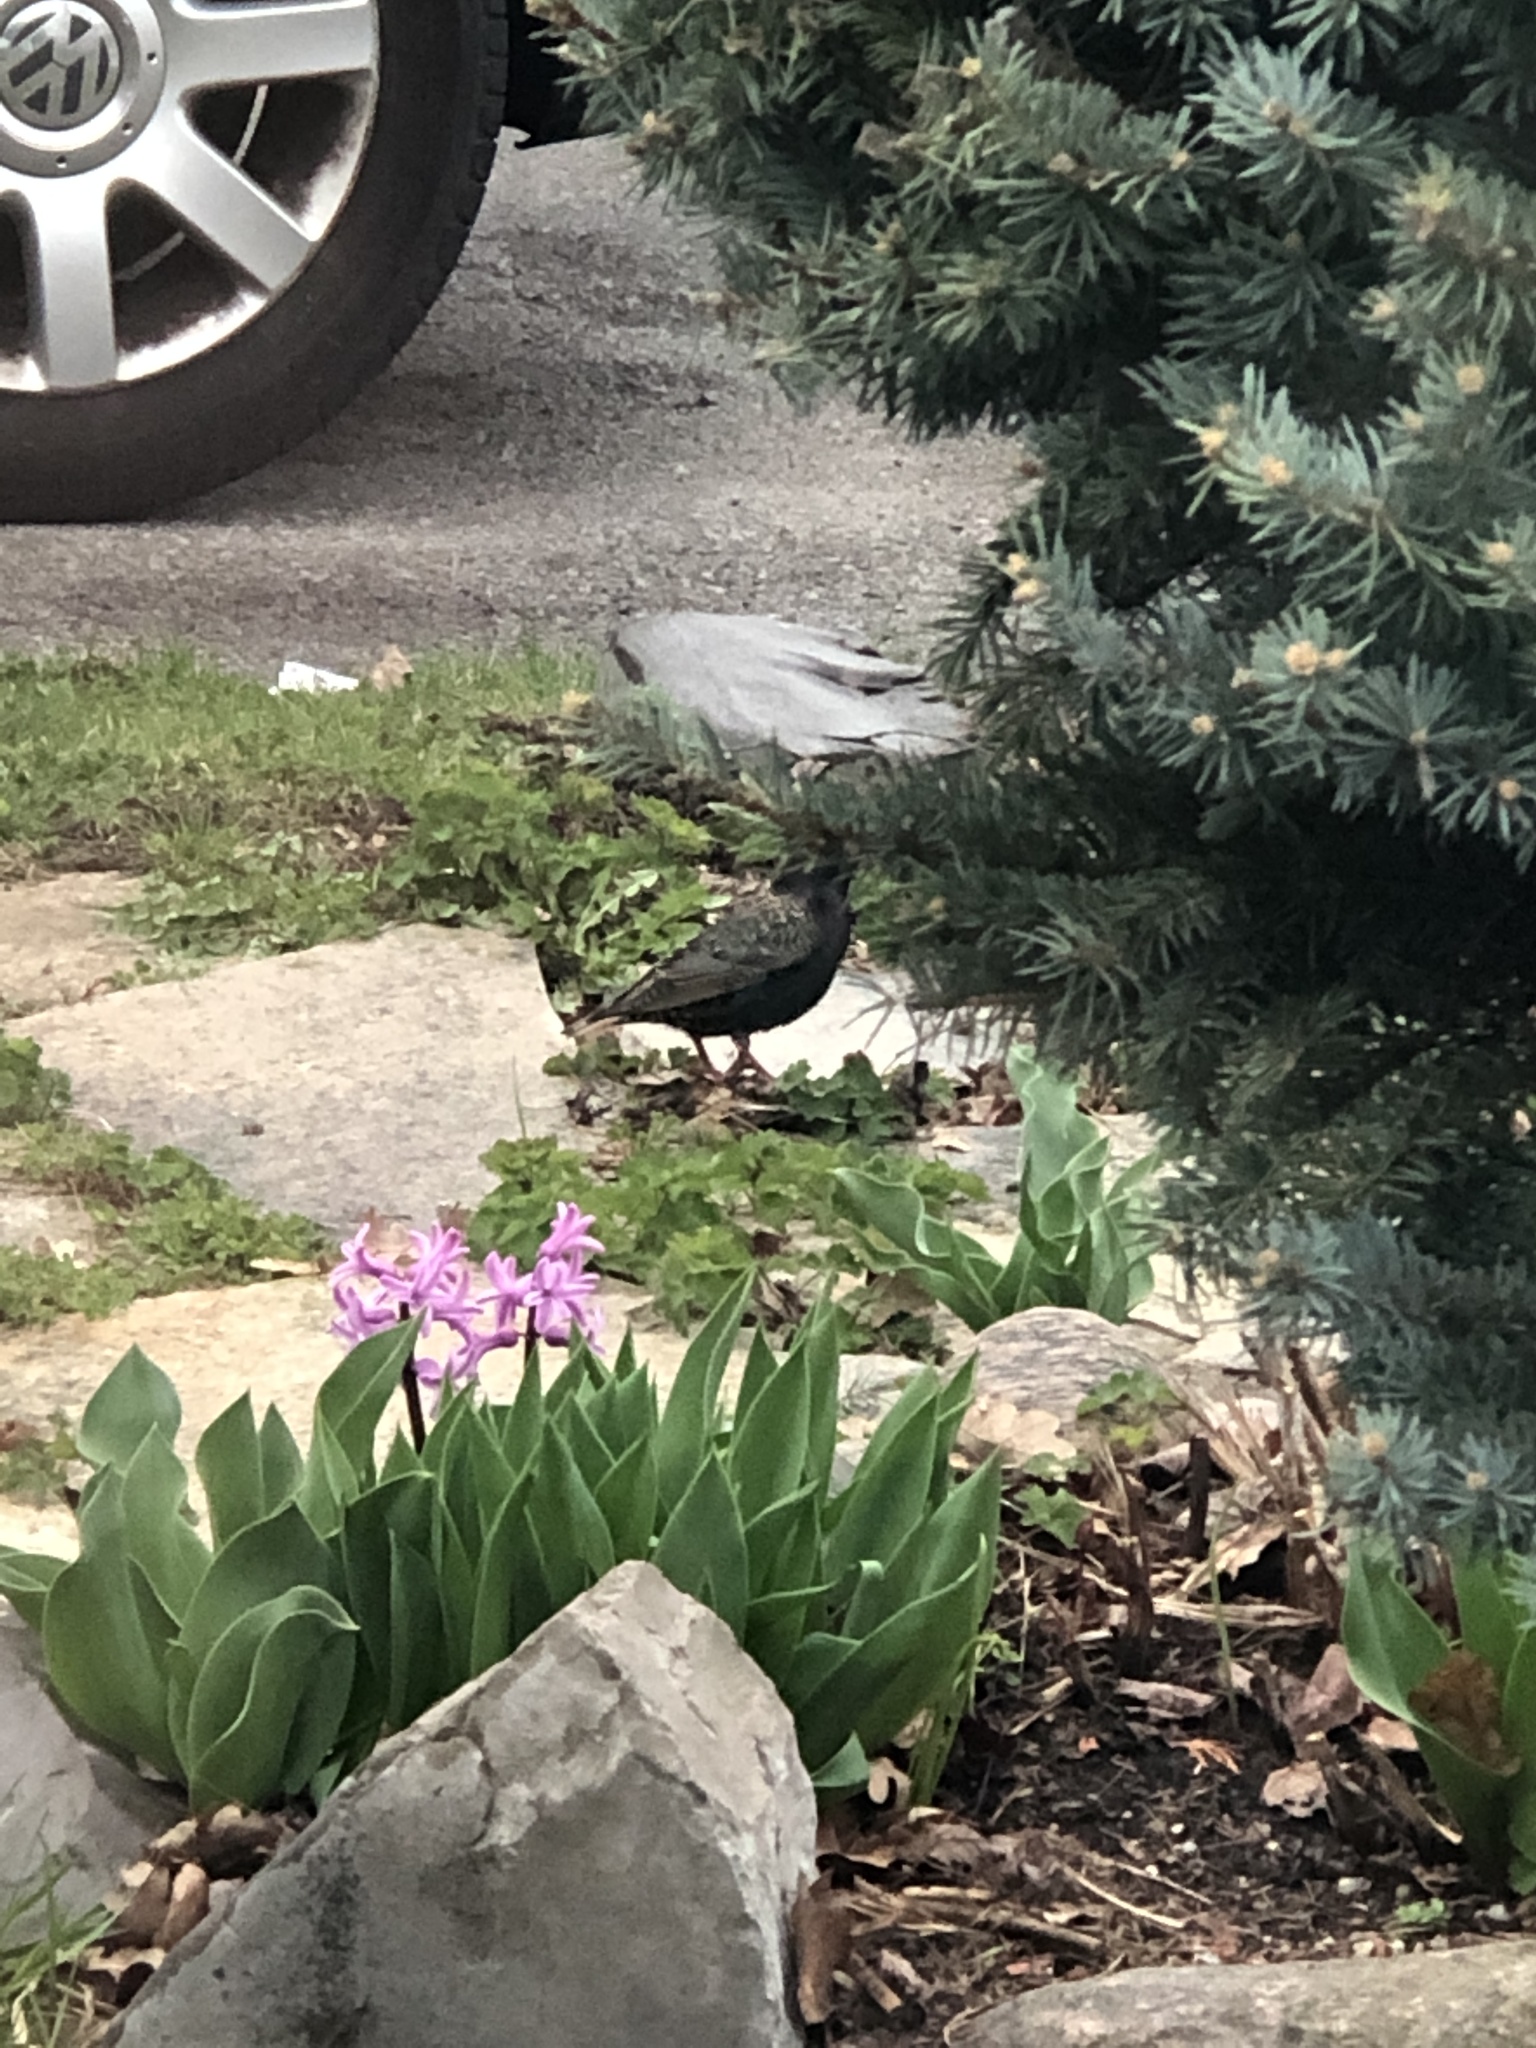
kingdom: Animalia
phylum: Chordata
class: Aves
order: Passeriformes
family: Sturnidae
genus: Sturnus
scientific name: Sturnus vulgaris
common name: Common starling
